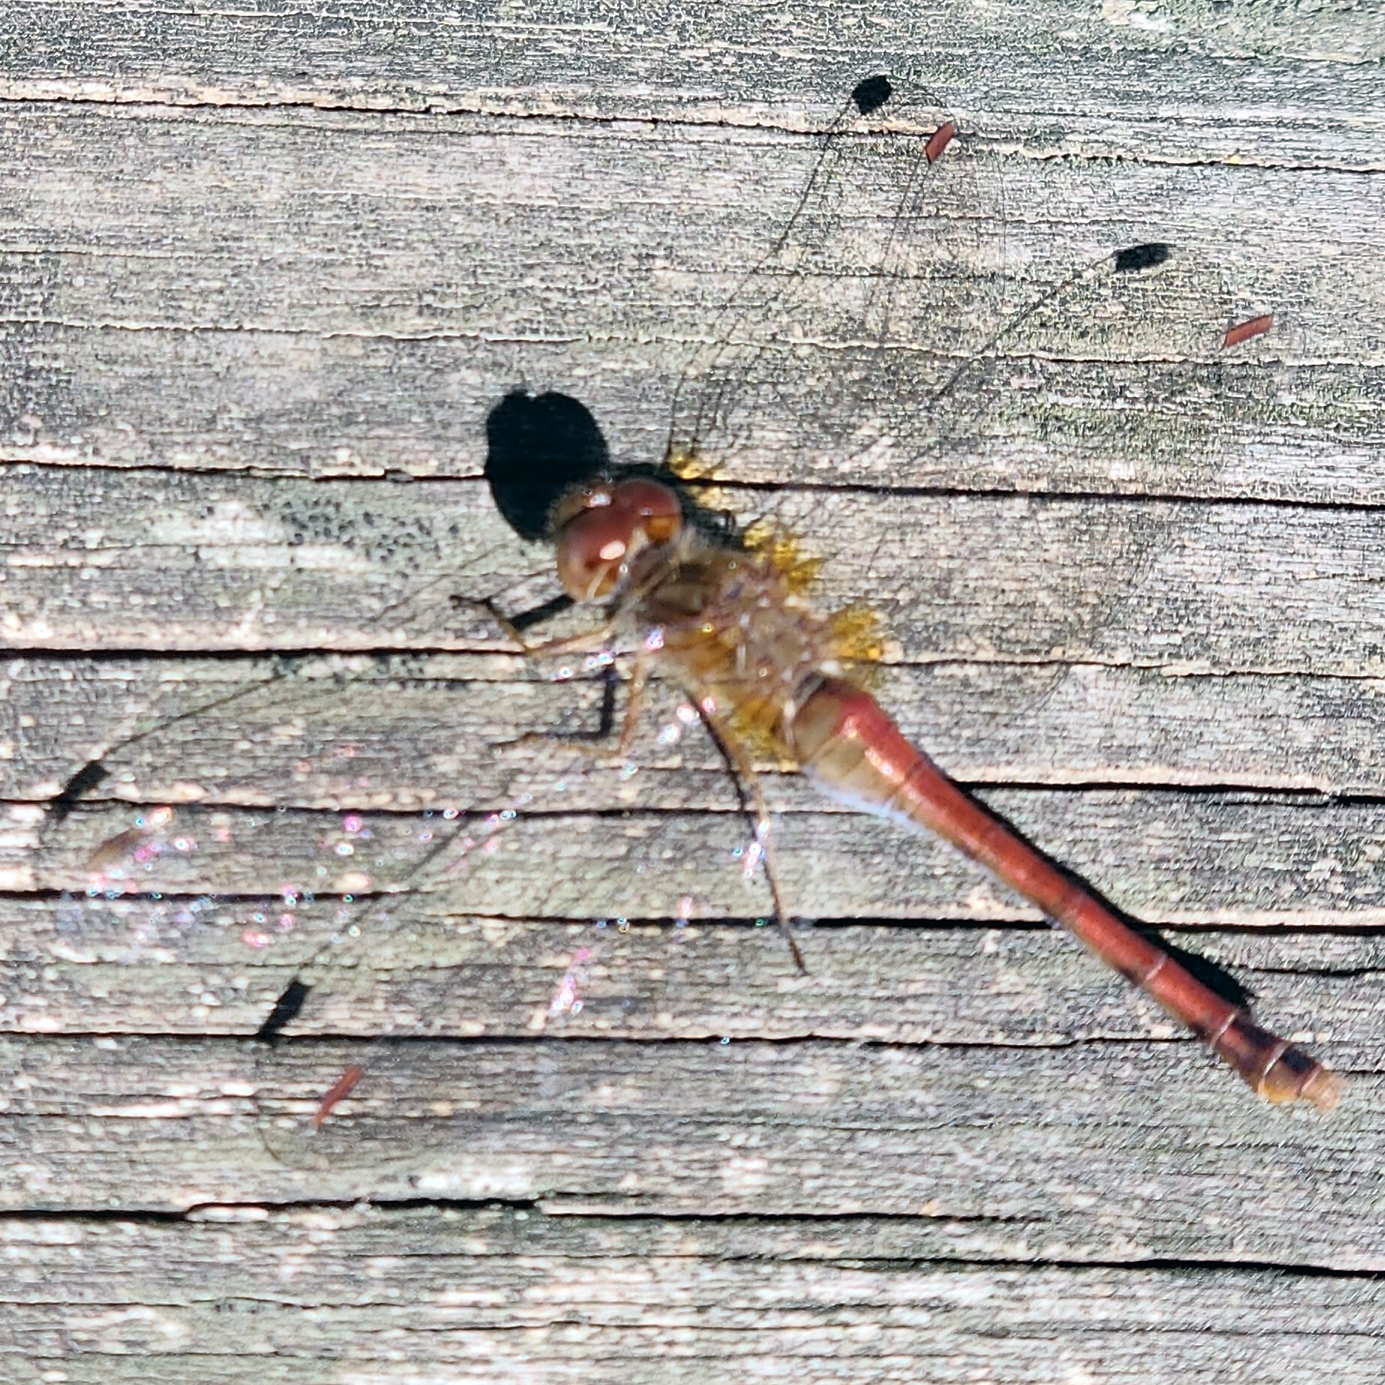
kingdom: Animalia
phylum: Arthropoda
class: Insecta
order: Odonata
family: Libellulidae
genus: Sympetrum
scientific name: Sympetrum vicinum
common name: Autumn meadowhawk
